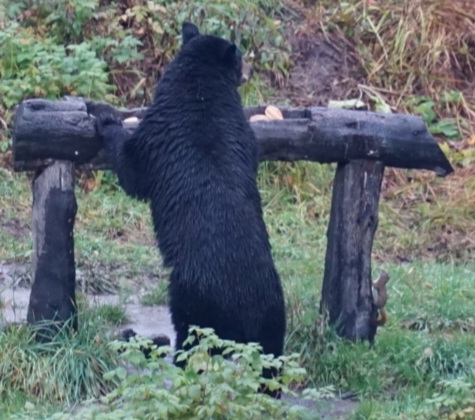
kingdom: Animalia
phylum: Chordata
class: Mammalia
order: Rodentia
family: Sciuridae
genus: Tamiasciurus
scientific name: Tamiasciurus hudsonicus
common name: Red squirrel
